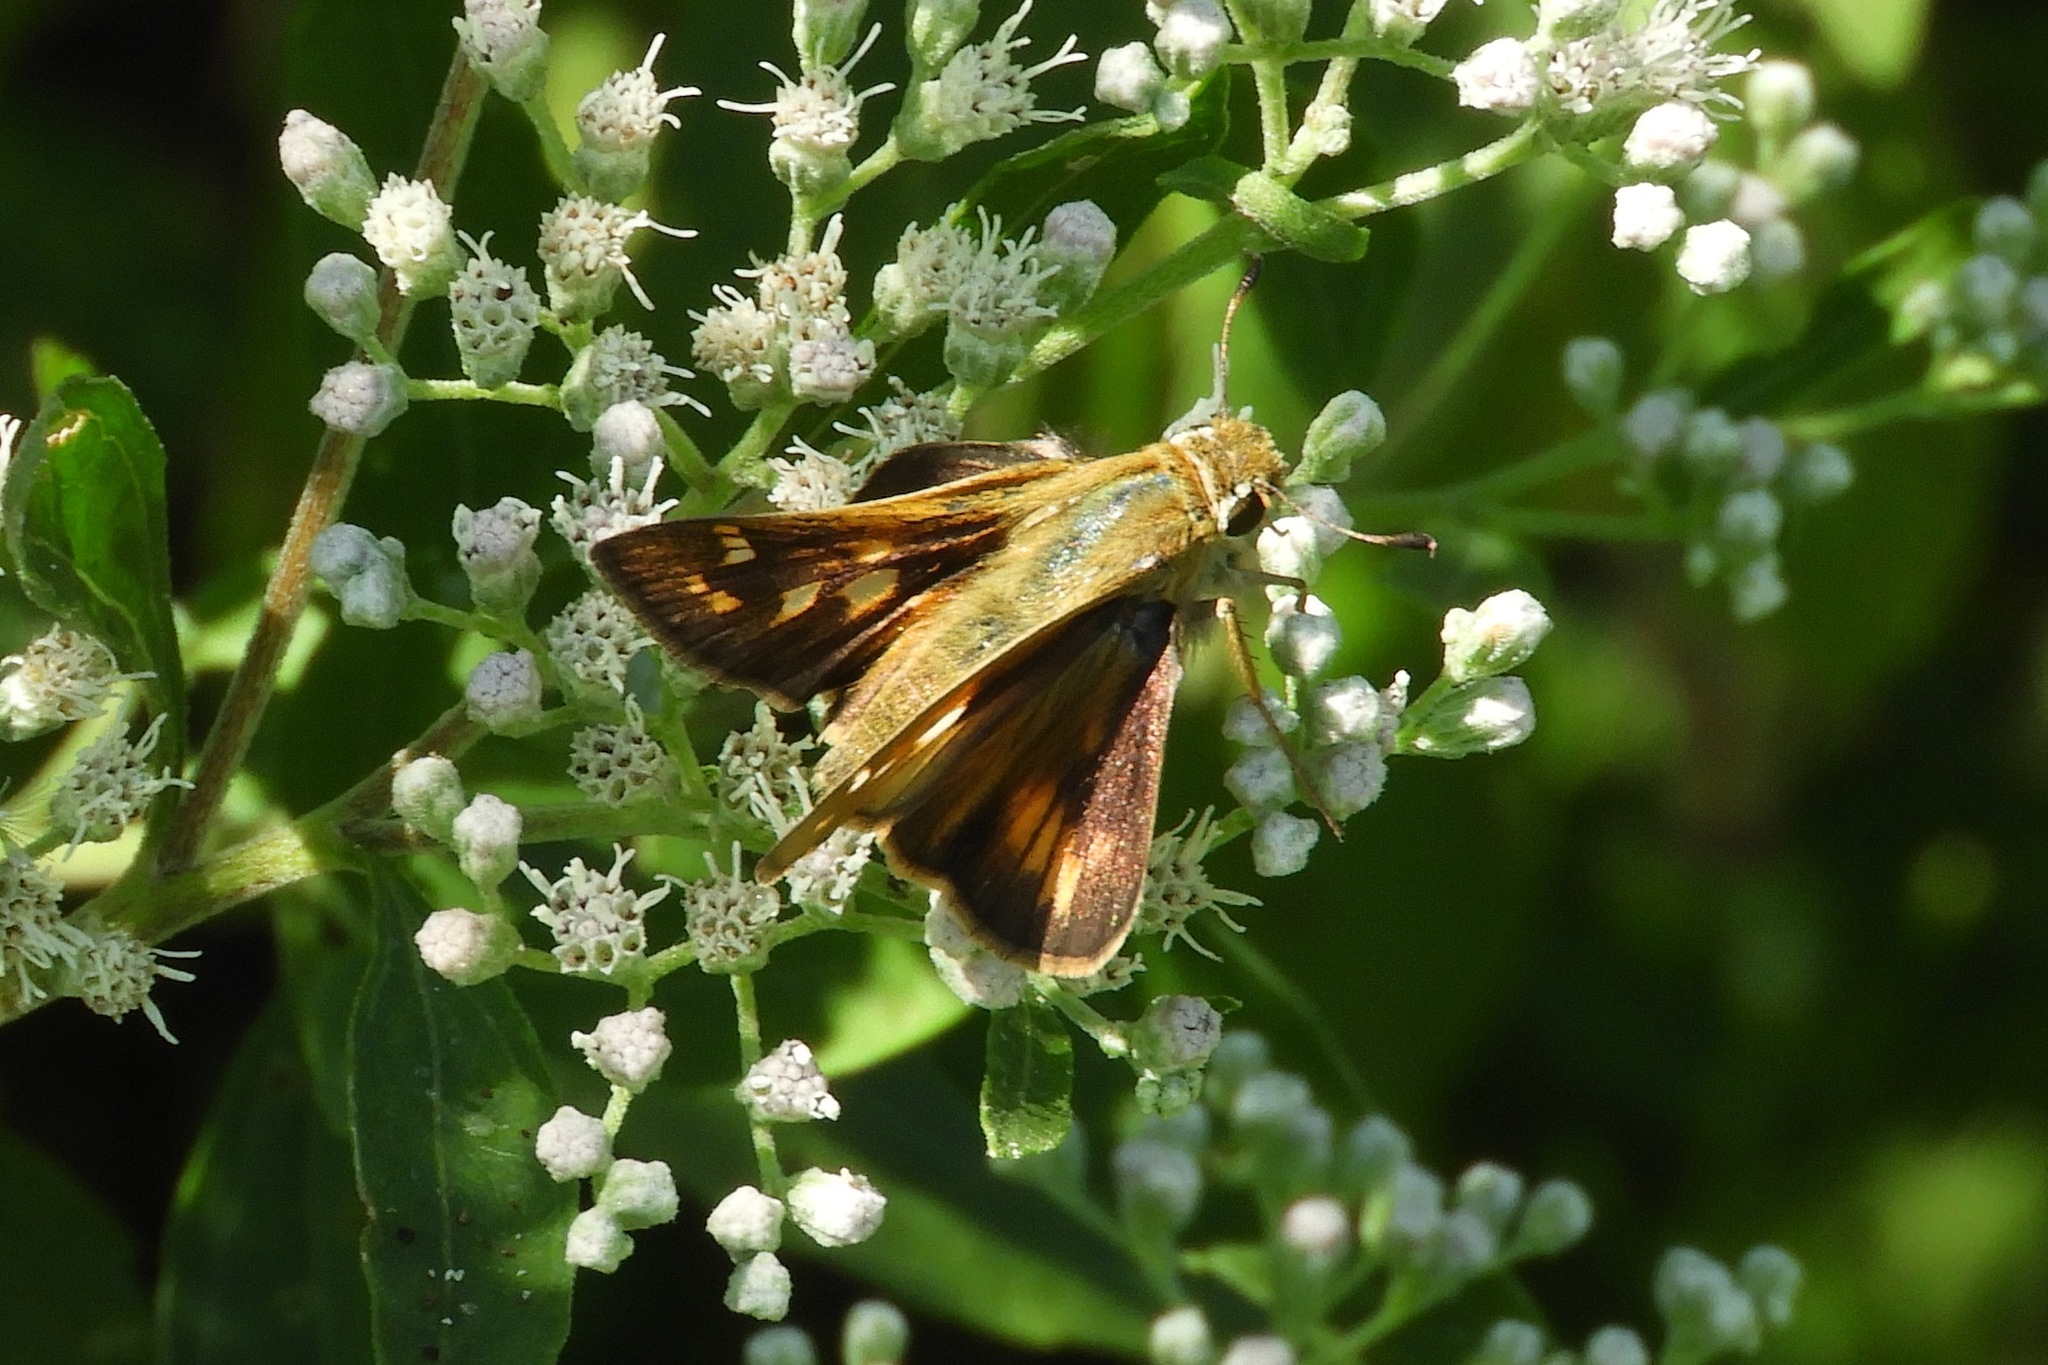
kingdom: Animalia
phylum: Arthropoda
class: Insecta
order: Lepidoptera
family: Hesperiidae
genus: Atalopedes
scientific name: Atalopedes
